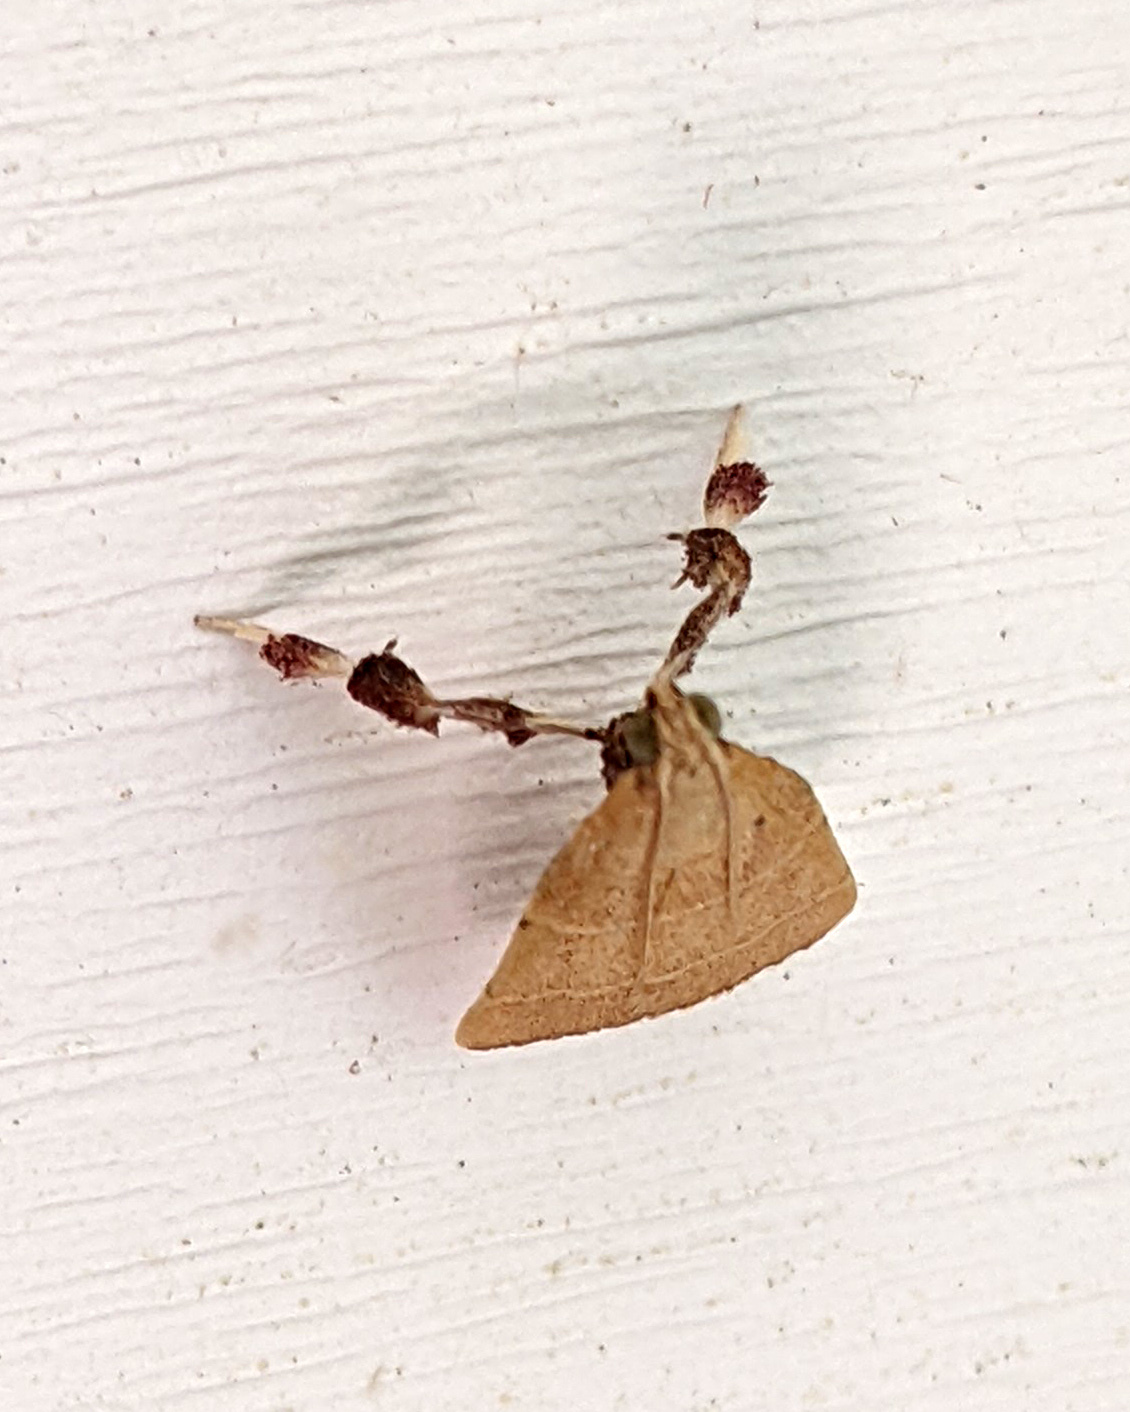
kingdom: Animalia
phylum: Arthropoda
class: Insecta
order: Lepidoptera
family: Pyralidae
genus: Parachma
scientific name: Parachma ochracealis
